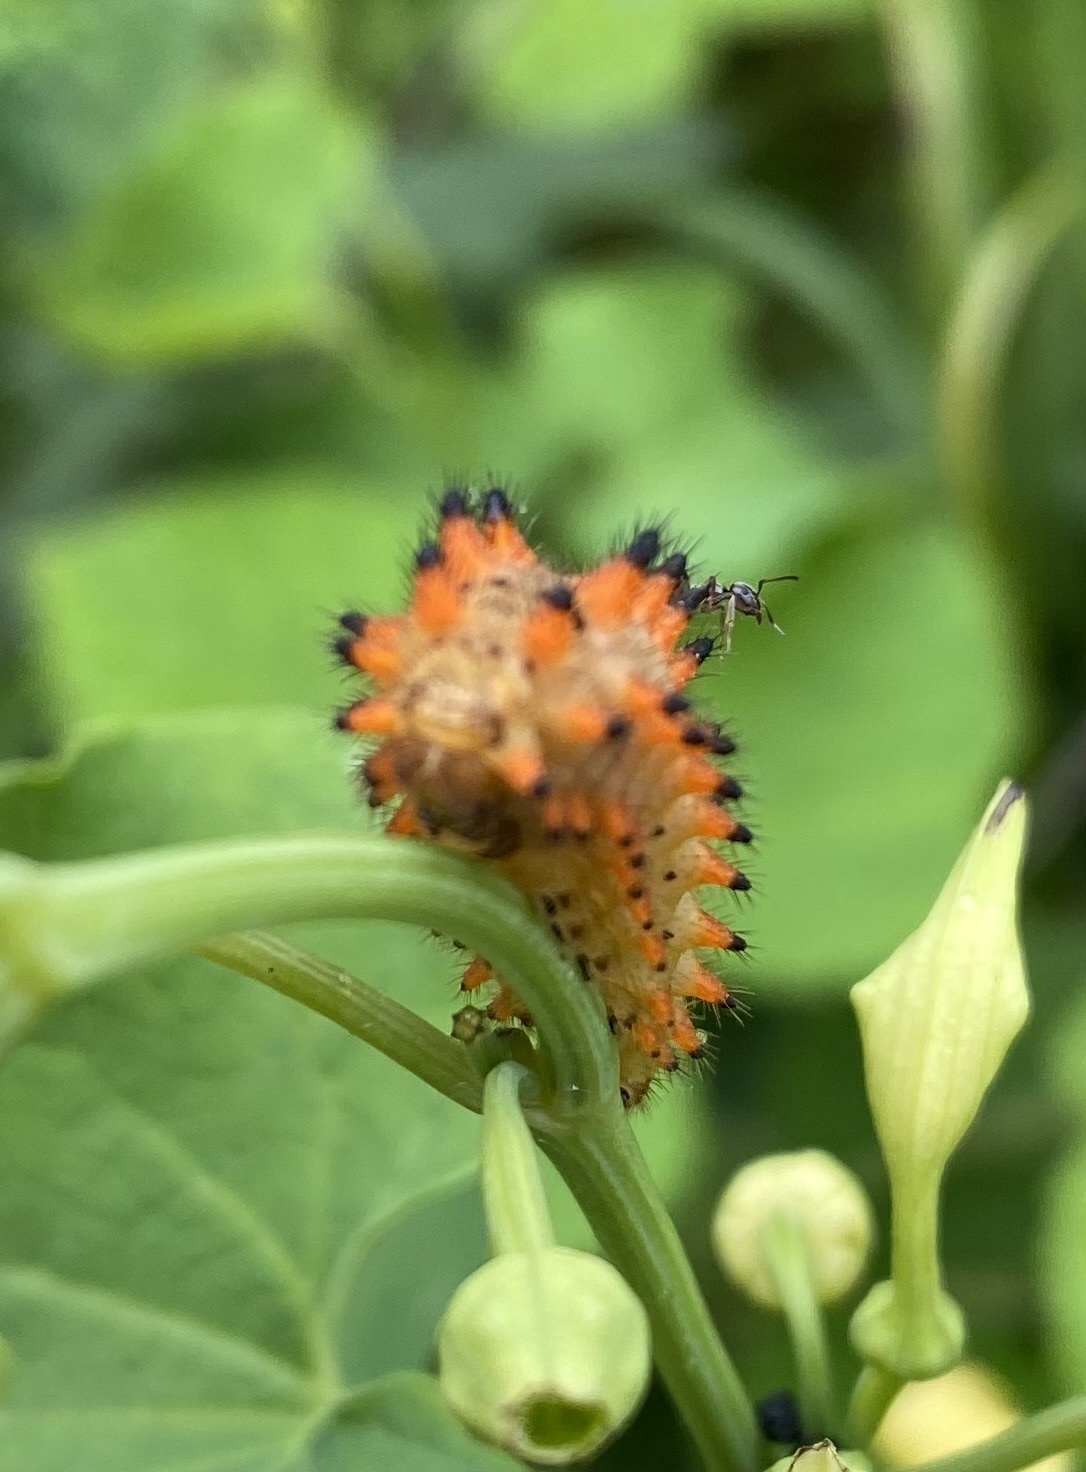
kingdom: Animalia
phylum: Arthropoda
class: Insecta
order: Lepidoptera
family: Papilionidae
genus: Zerynthia
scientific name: Zerynthia polyxena
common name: Southern festoon
